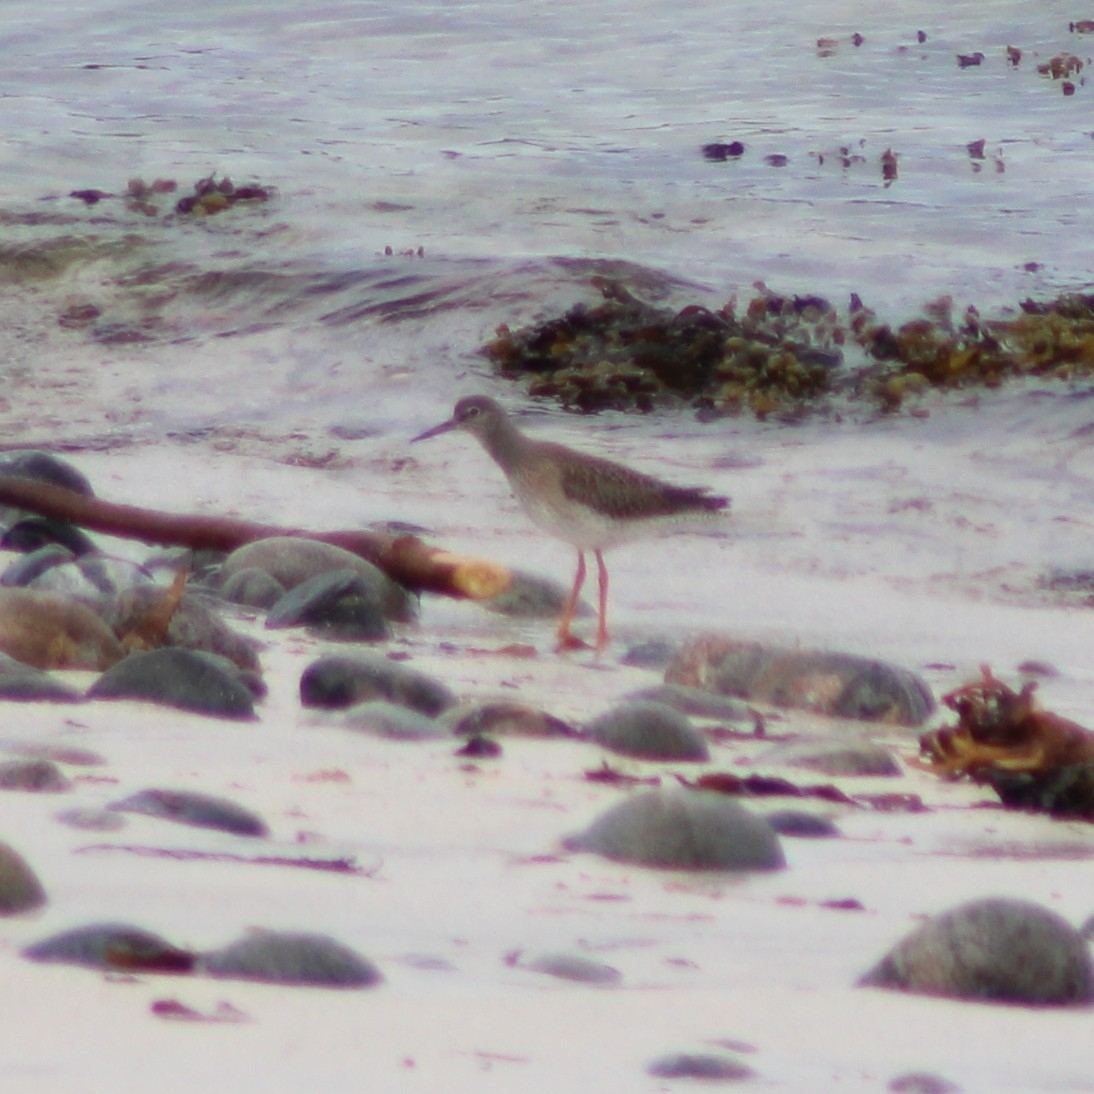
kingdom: Animalia
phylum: Chordata
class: Aves
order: Charadriiformes
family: Scolopacidae
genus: Tringa
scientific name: Tringa totanus
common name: Common redshank
